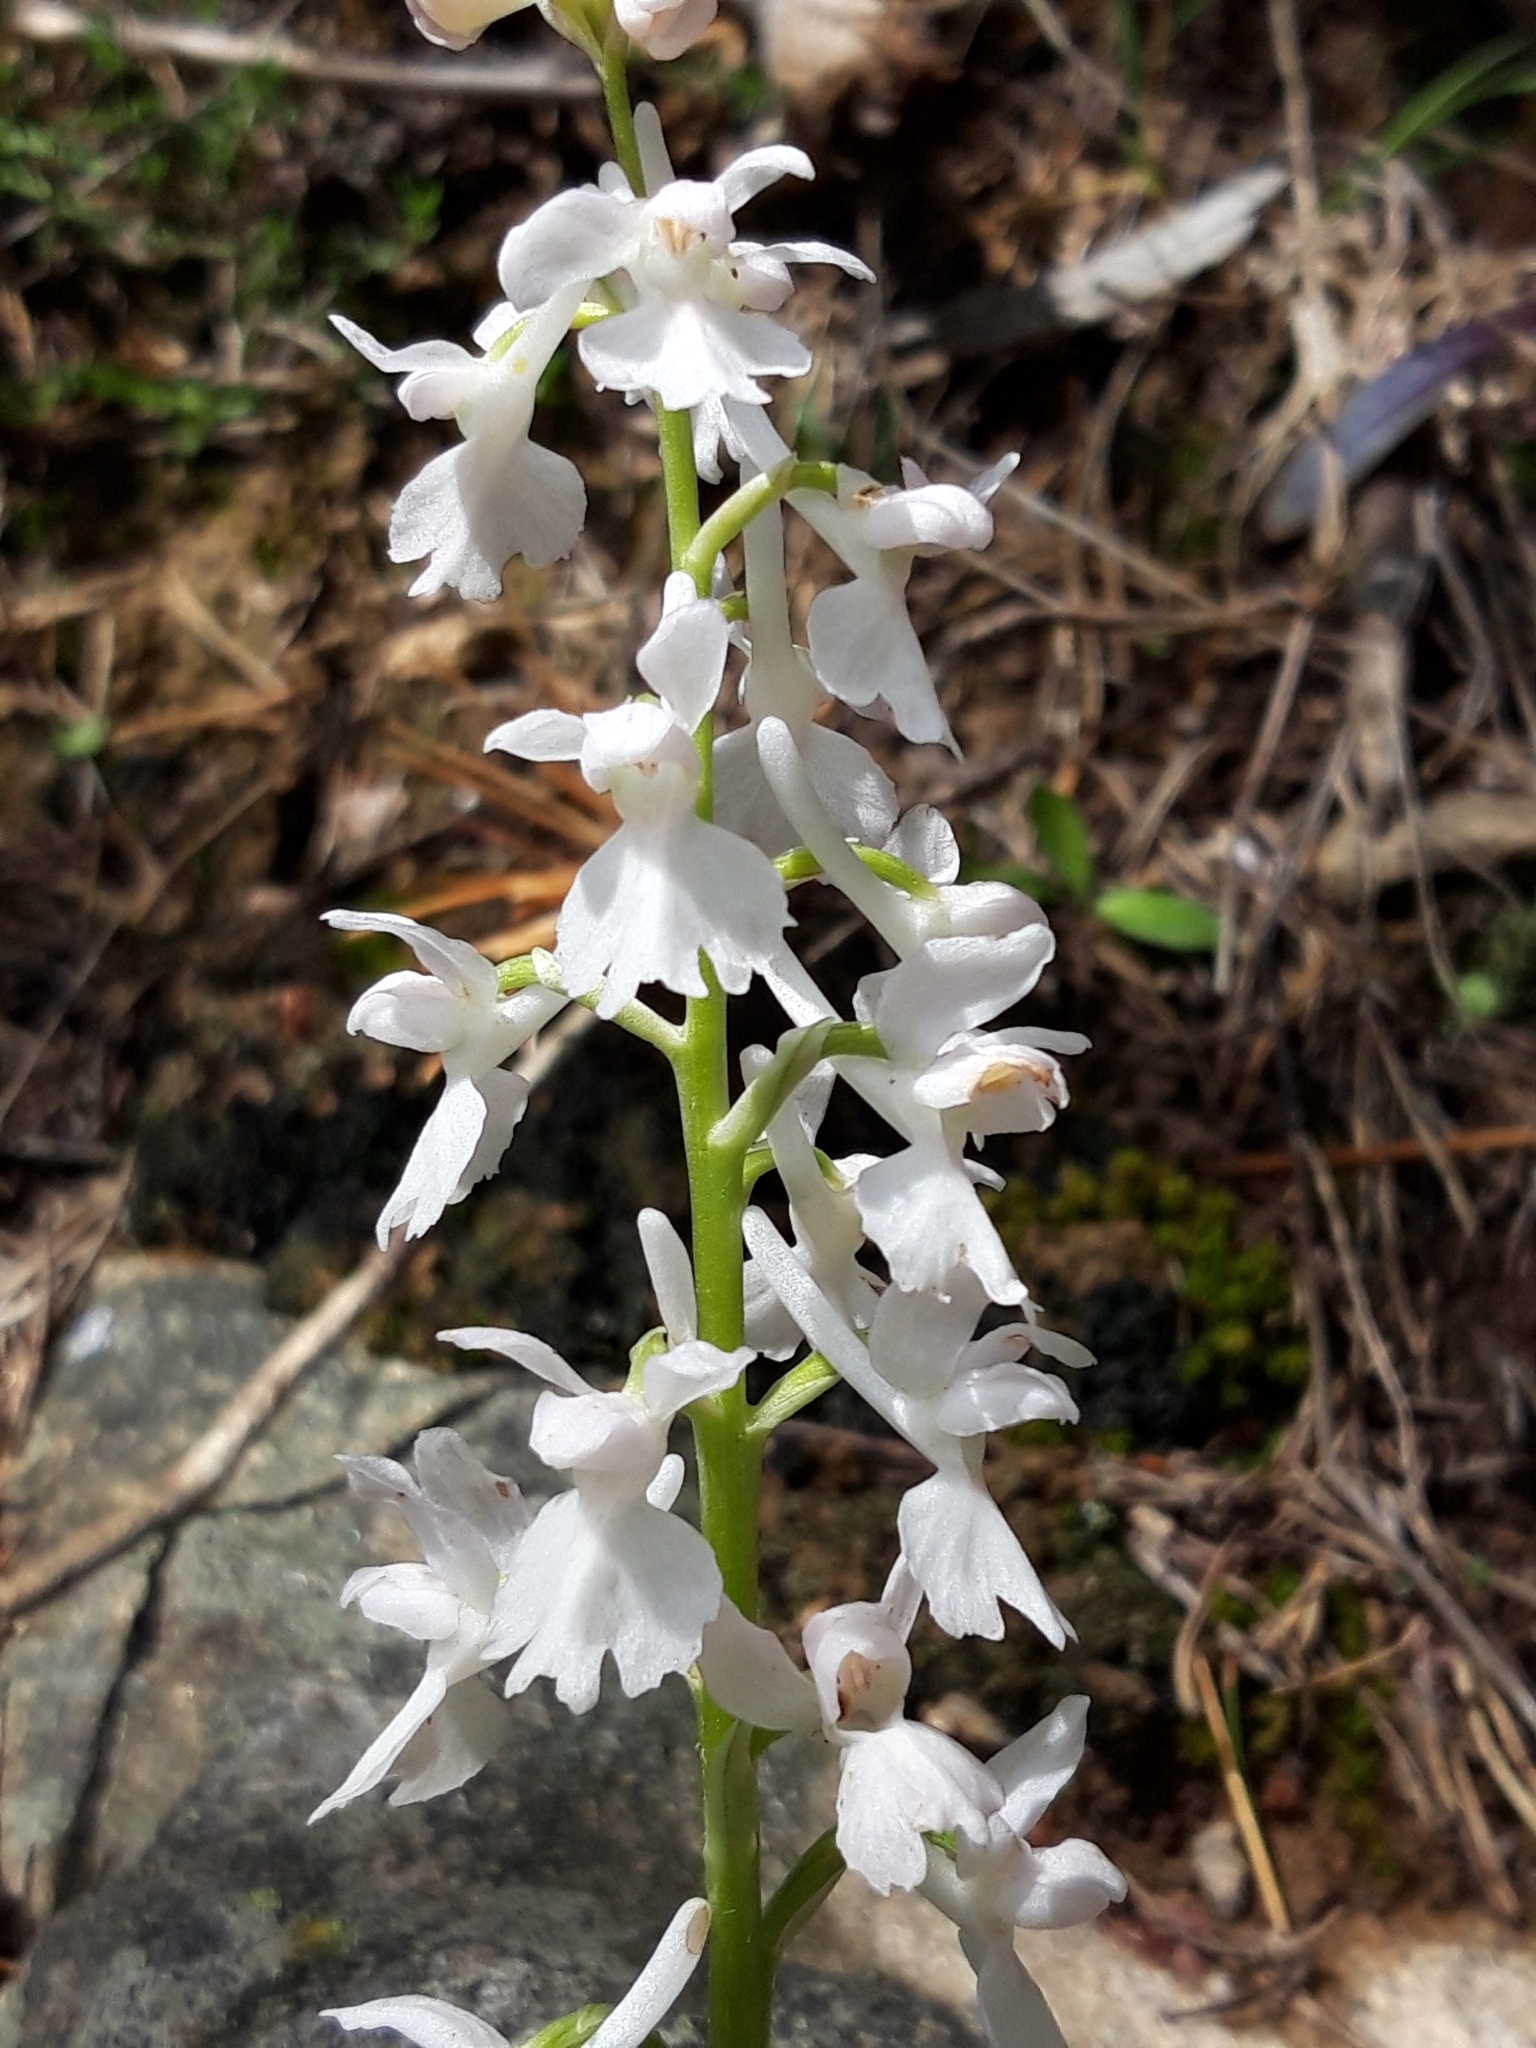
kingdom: Plantae
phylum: Tracheophyta
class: Liliopsida
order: Asparagales
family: Orchidaceae
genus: Orchis
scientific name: Orchis mascula
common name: Early-purple orchid
